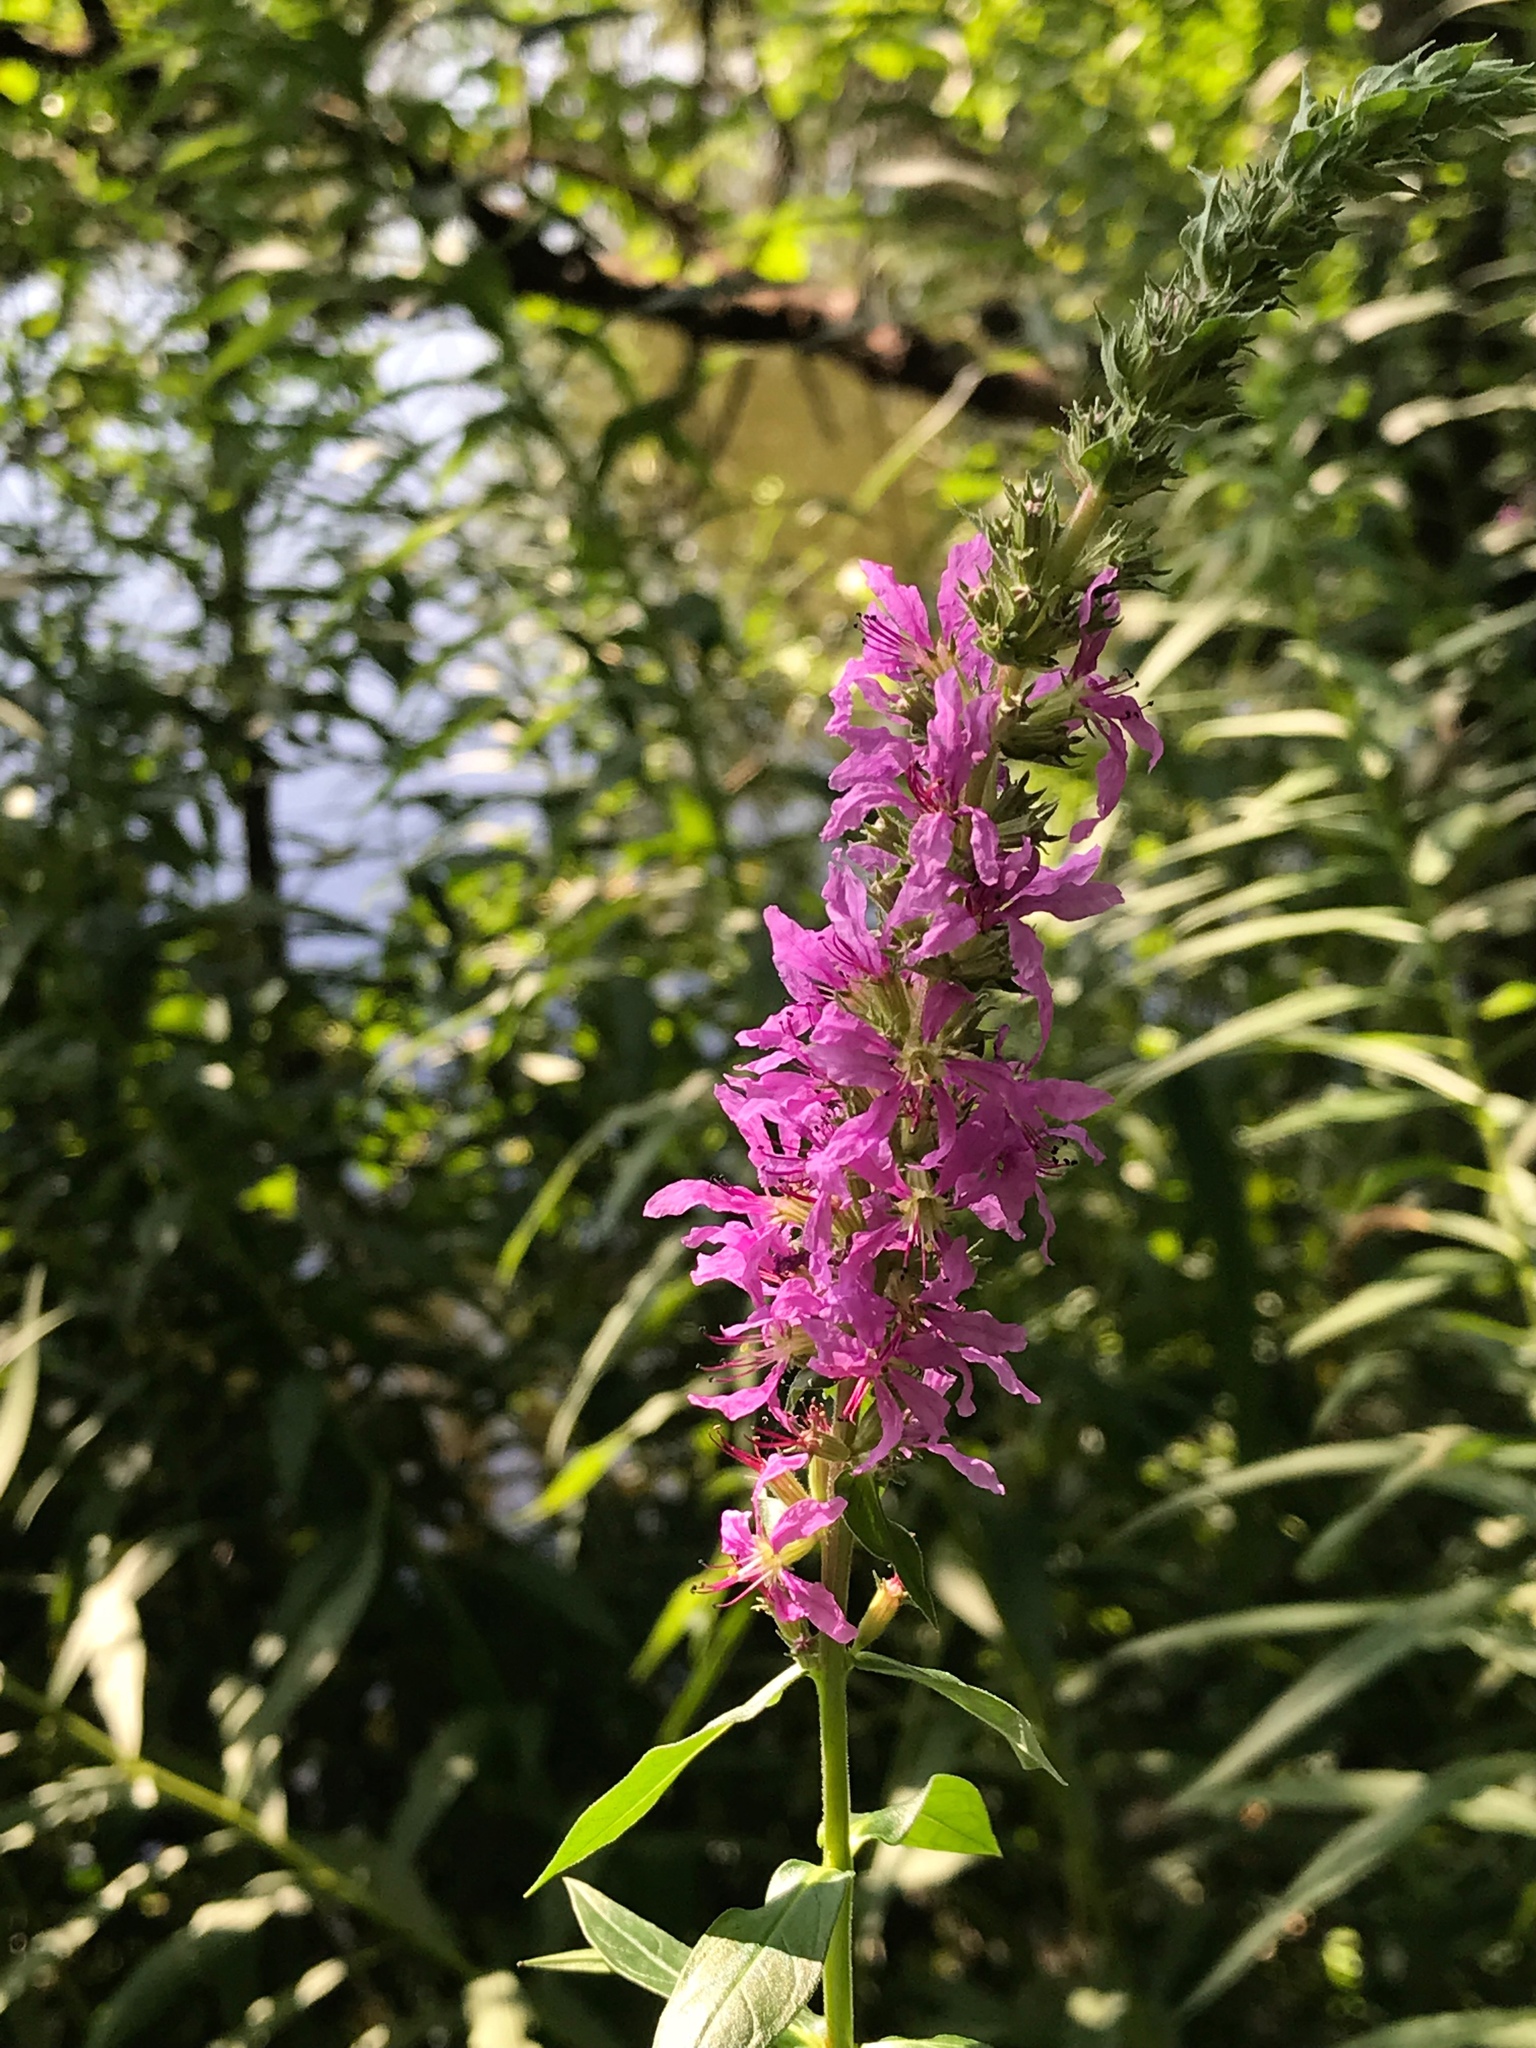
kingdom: Plantae
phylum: Tracheophyta
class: Magnoliopsida
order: Myrtales
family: Lythraceae
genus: Lythrum
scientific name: Lythrum salicaria
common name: Purple loosestrife
